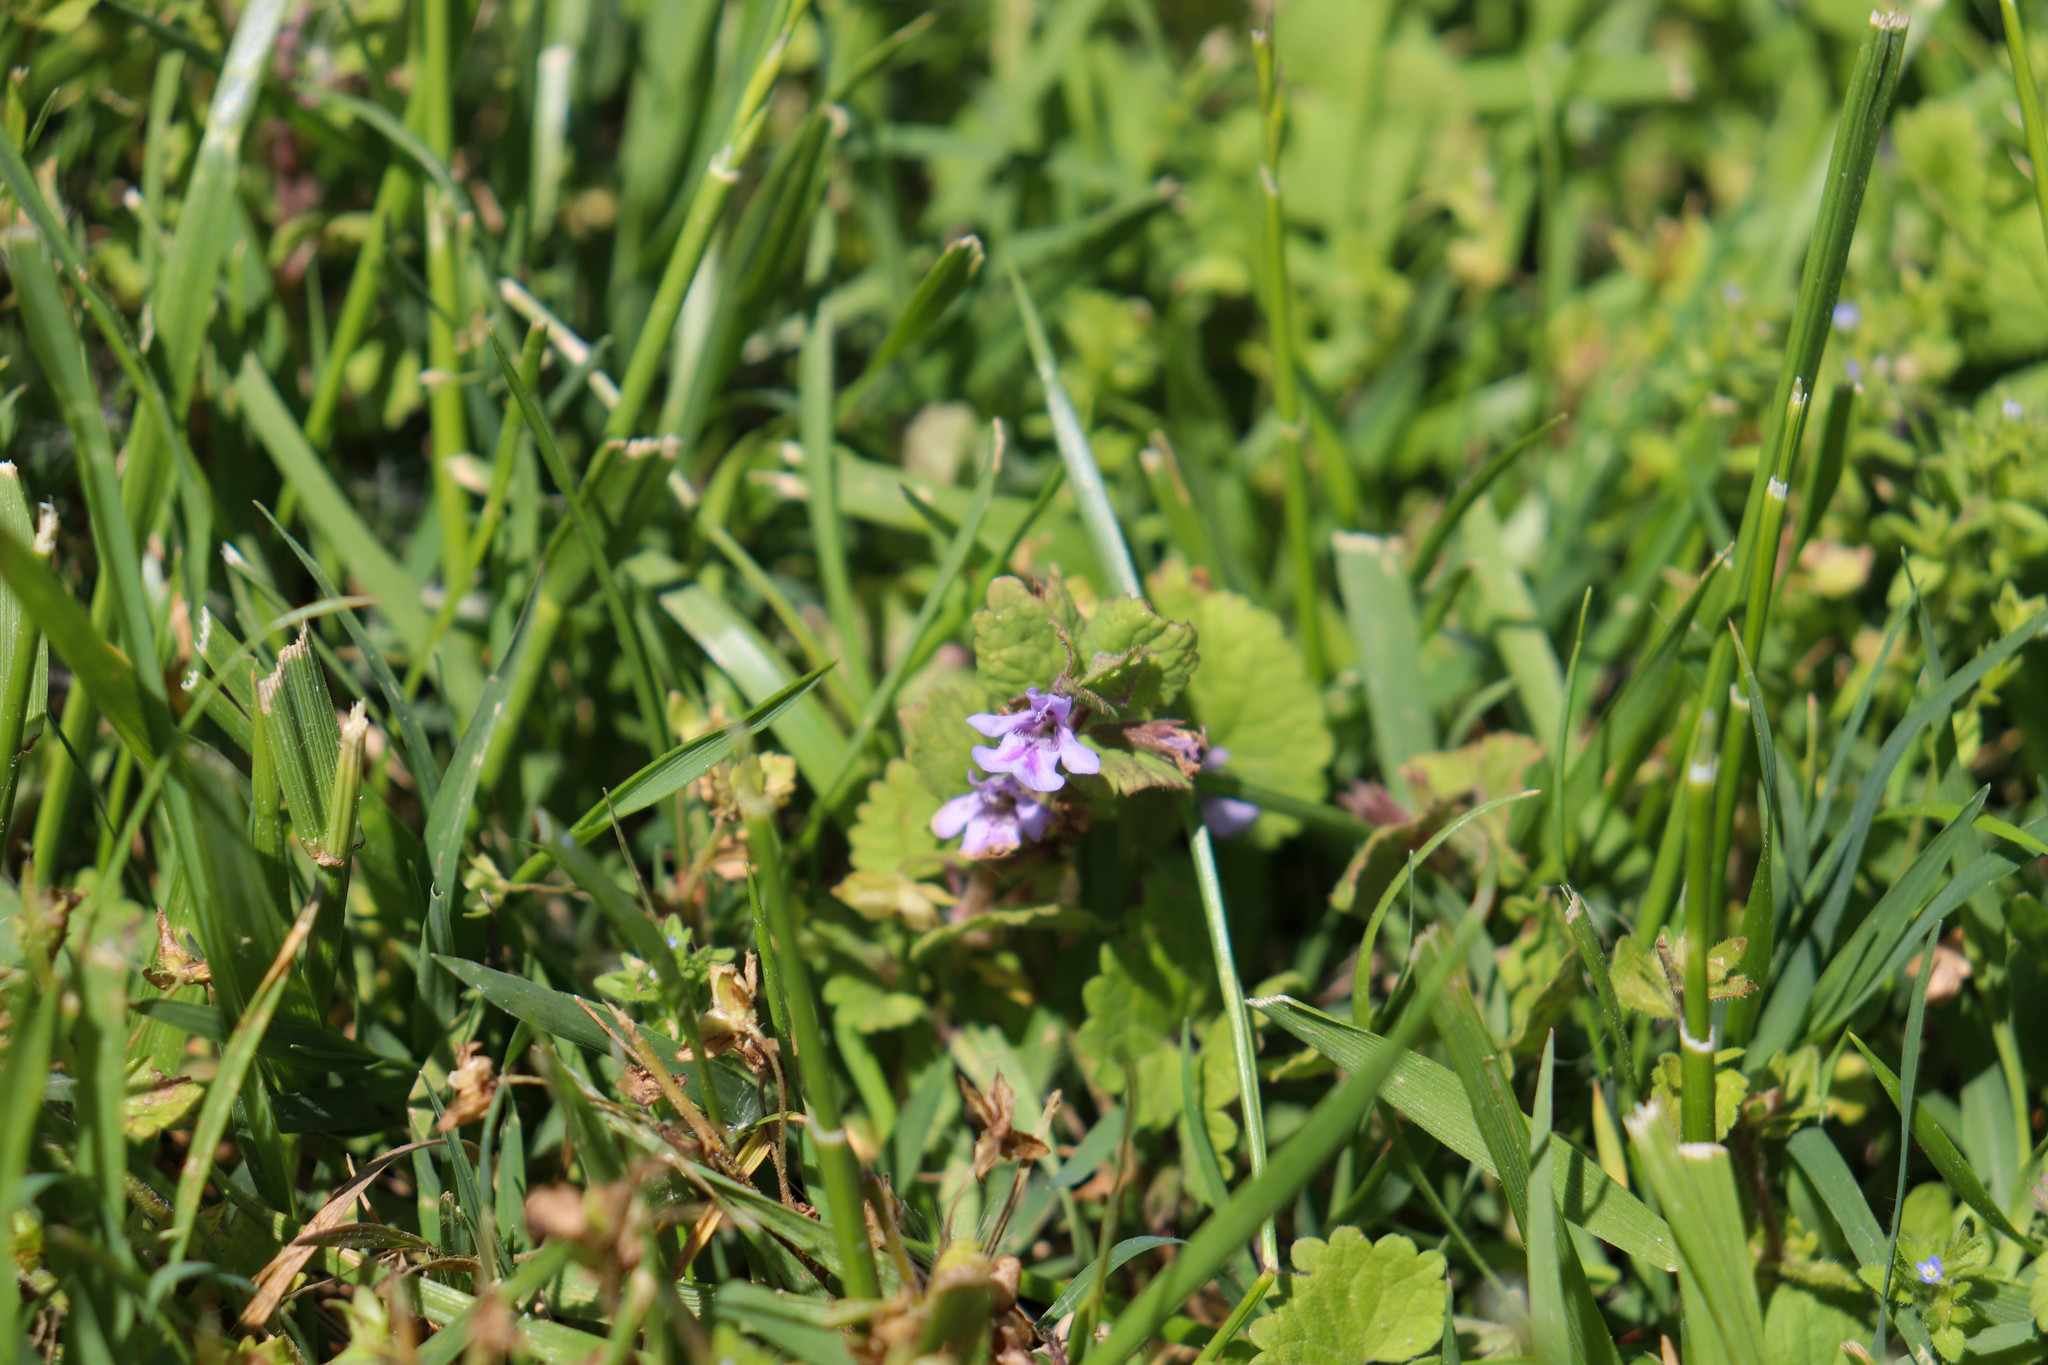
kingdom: Plantae
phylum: Tracheophyta
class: Magnoliopsida
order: Lamiales
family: Lamiaceae
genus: Glechoma
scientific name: Glechoma hederacea
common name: Ground ivy
